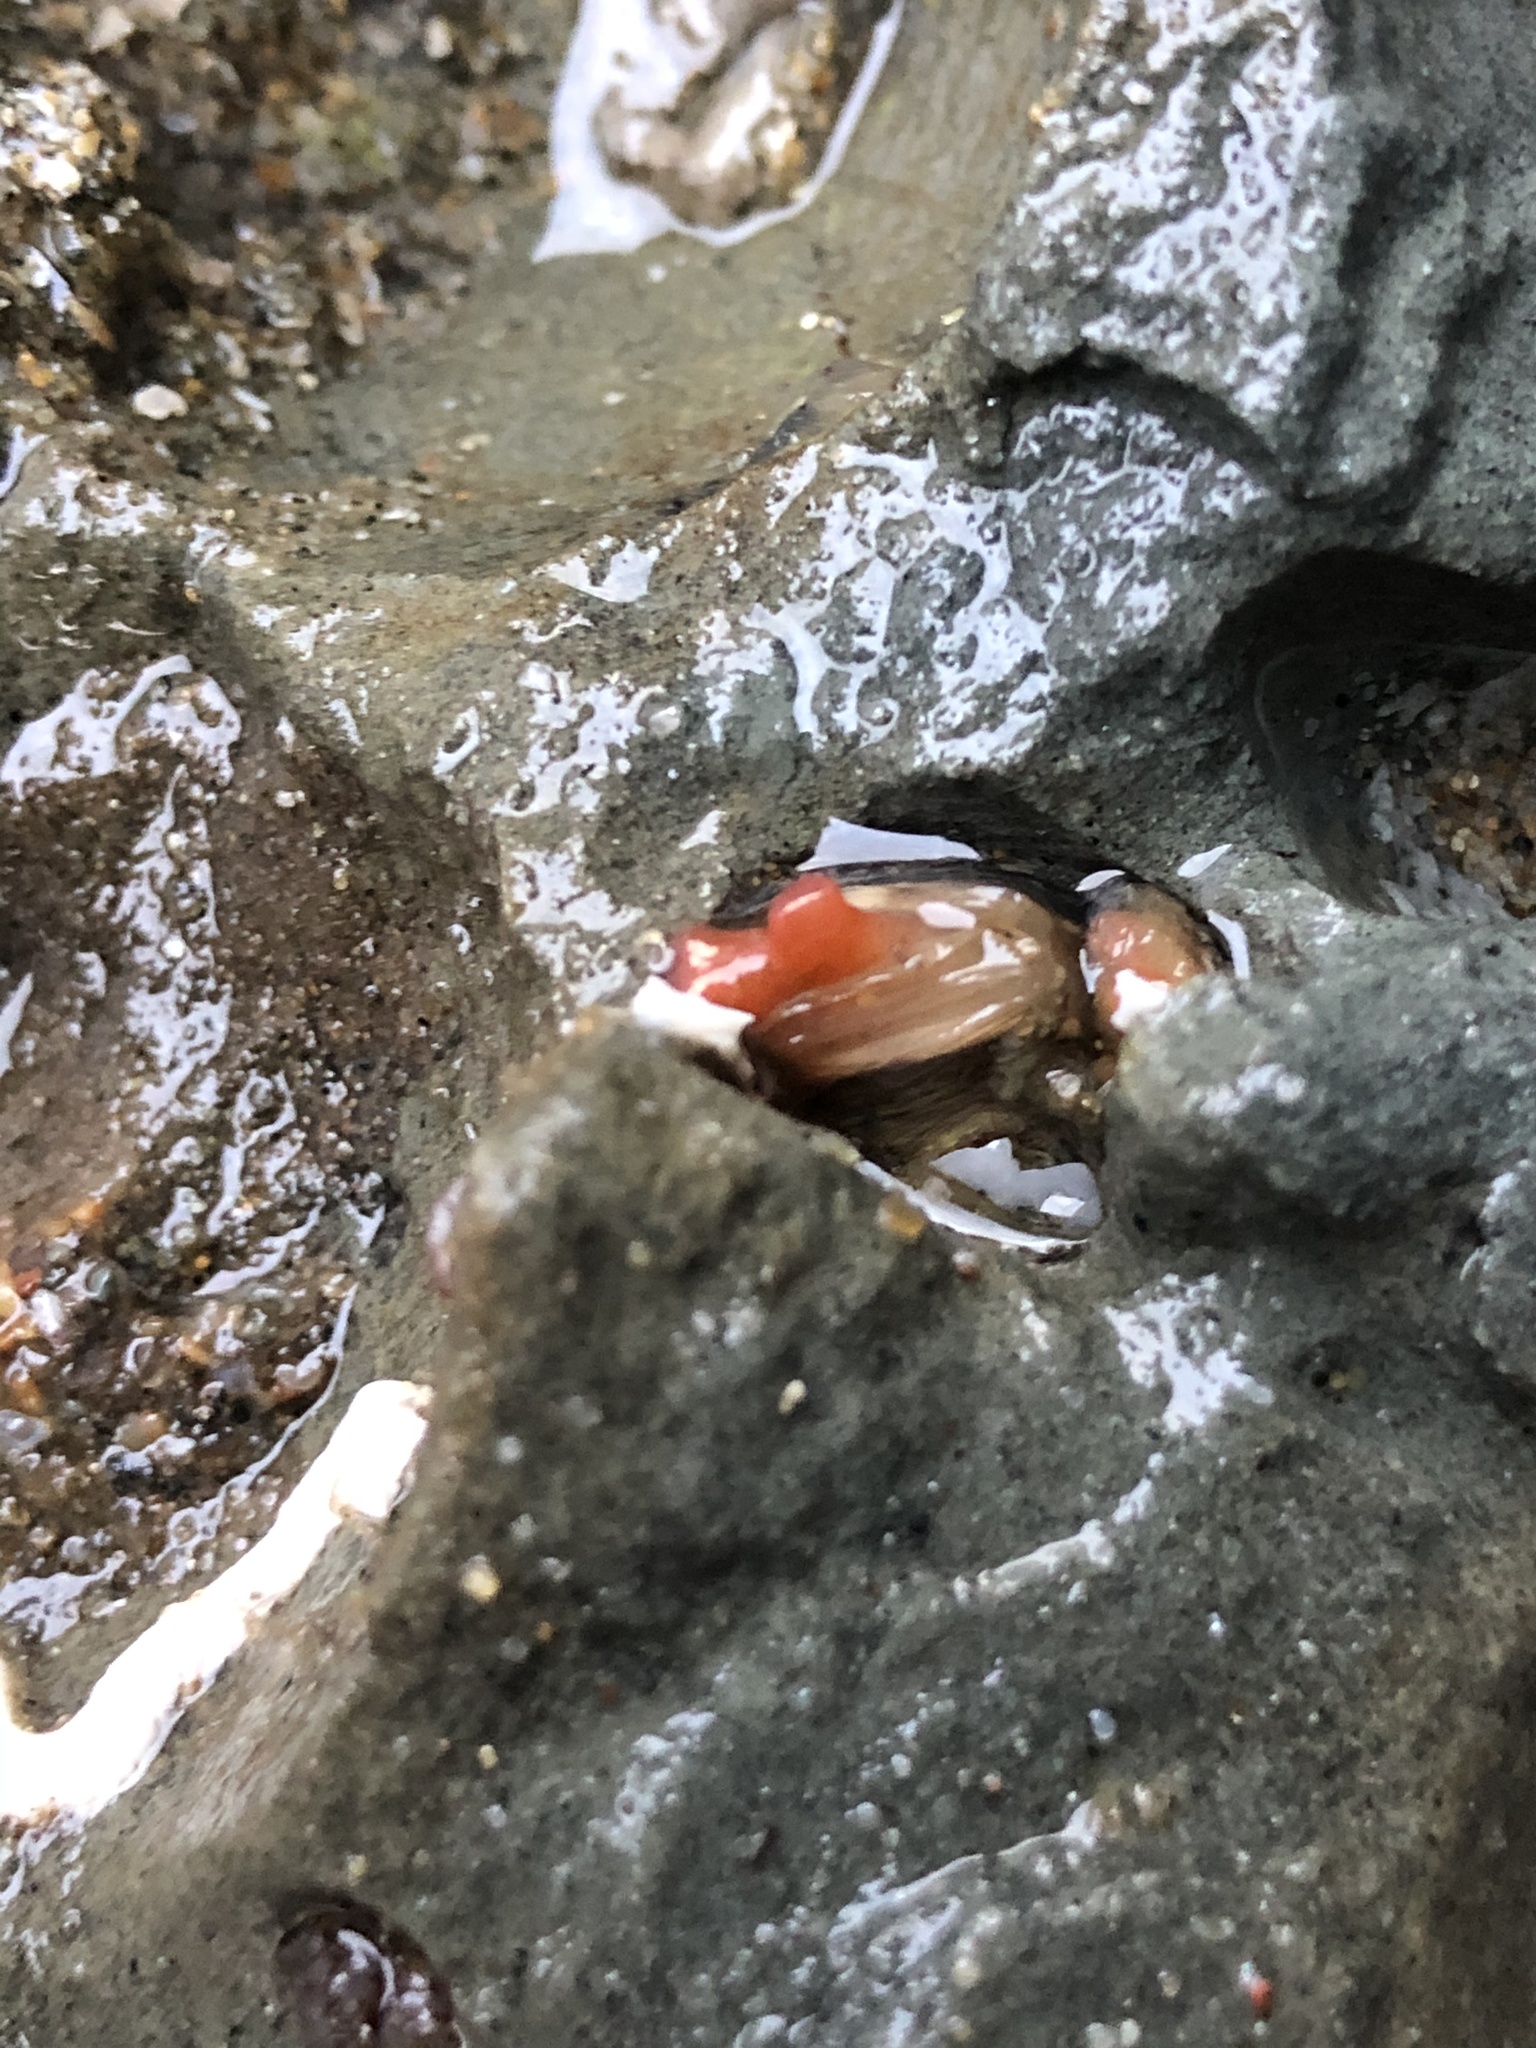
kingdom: Animalia
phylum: Mollusca
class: Bivalvia
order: Adapedonta
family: Hiatellidae
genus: Hiatella
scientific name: Hiatella arctica
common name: Arctic hiatella
